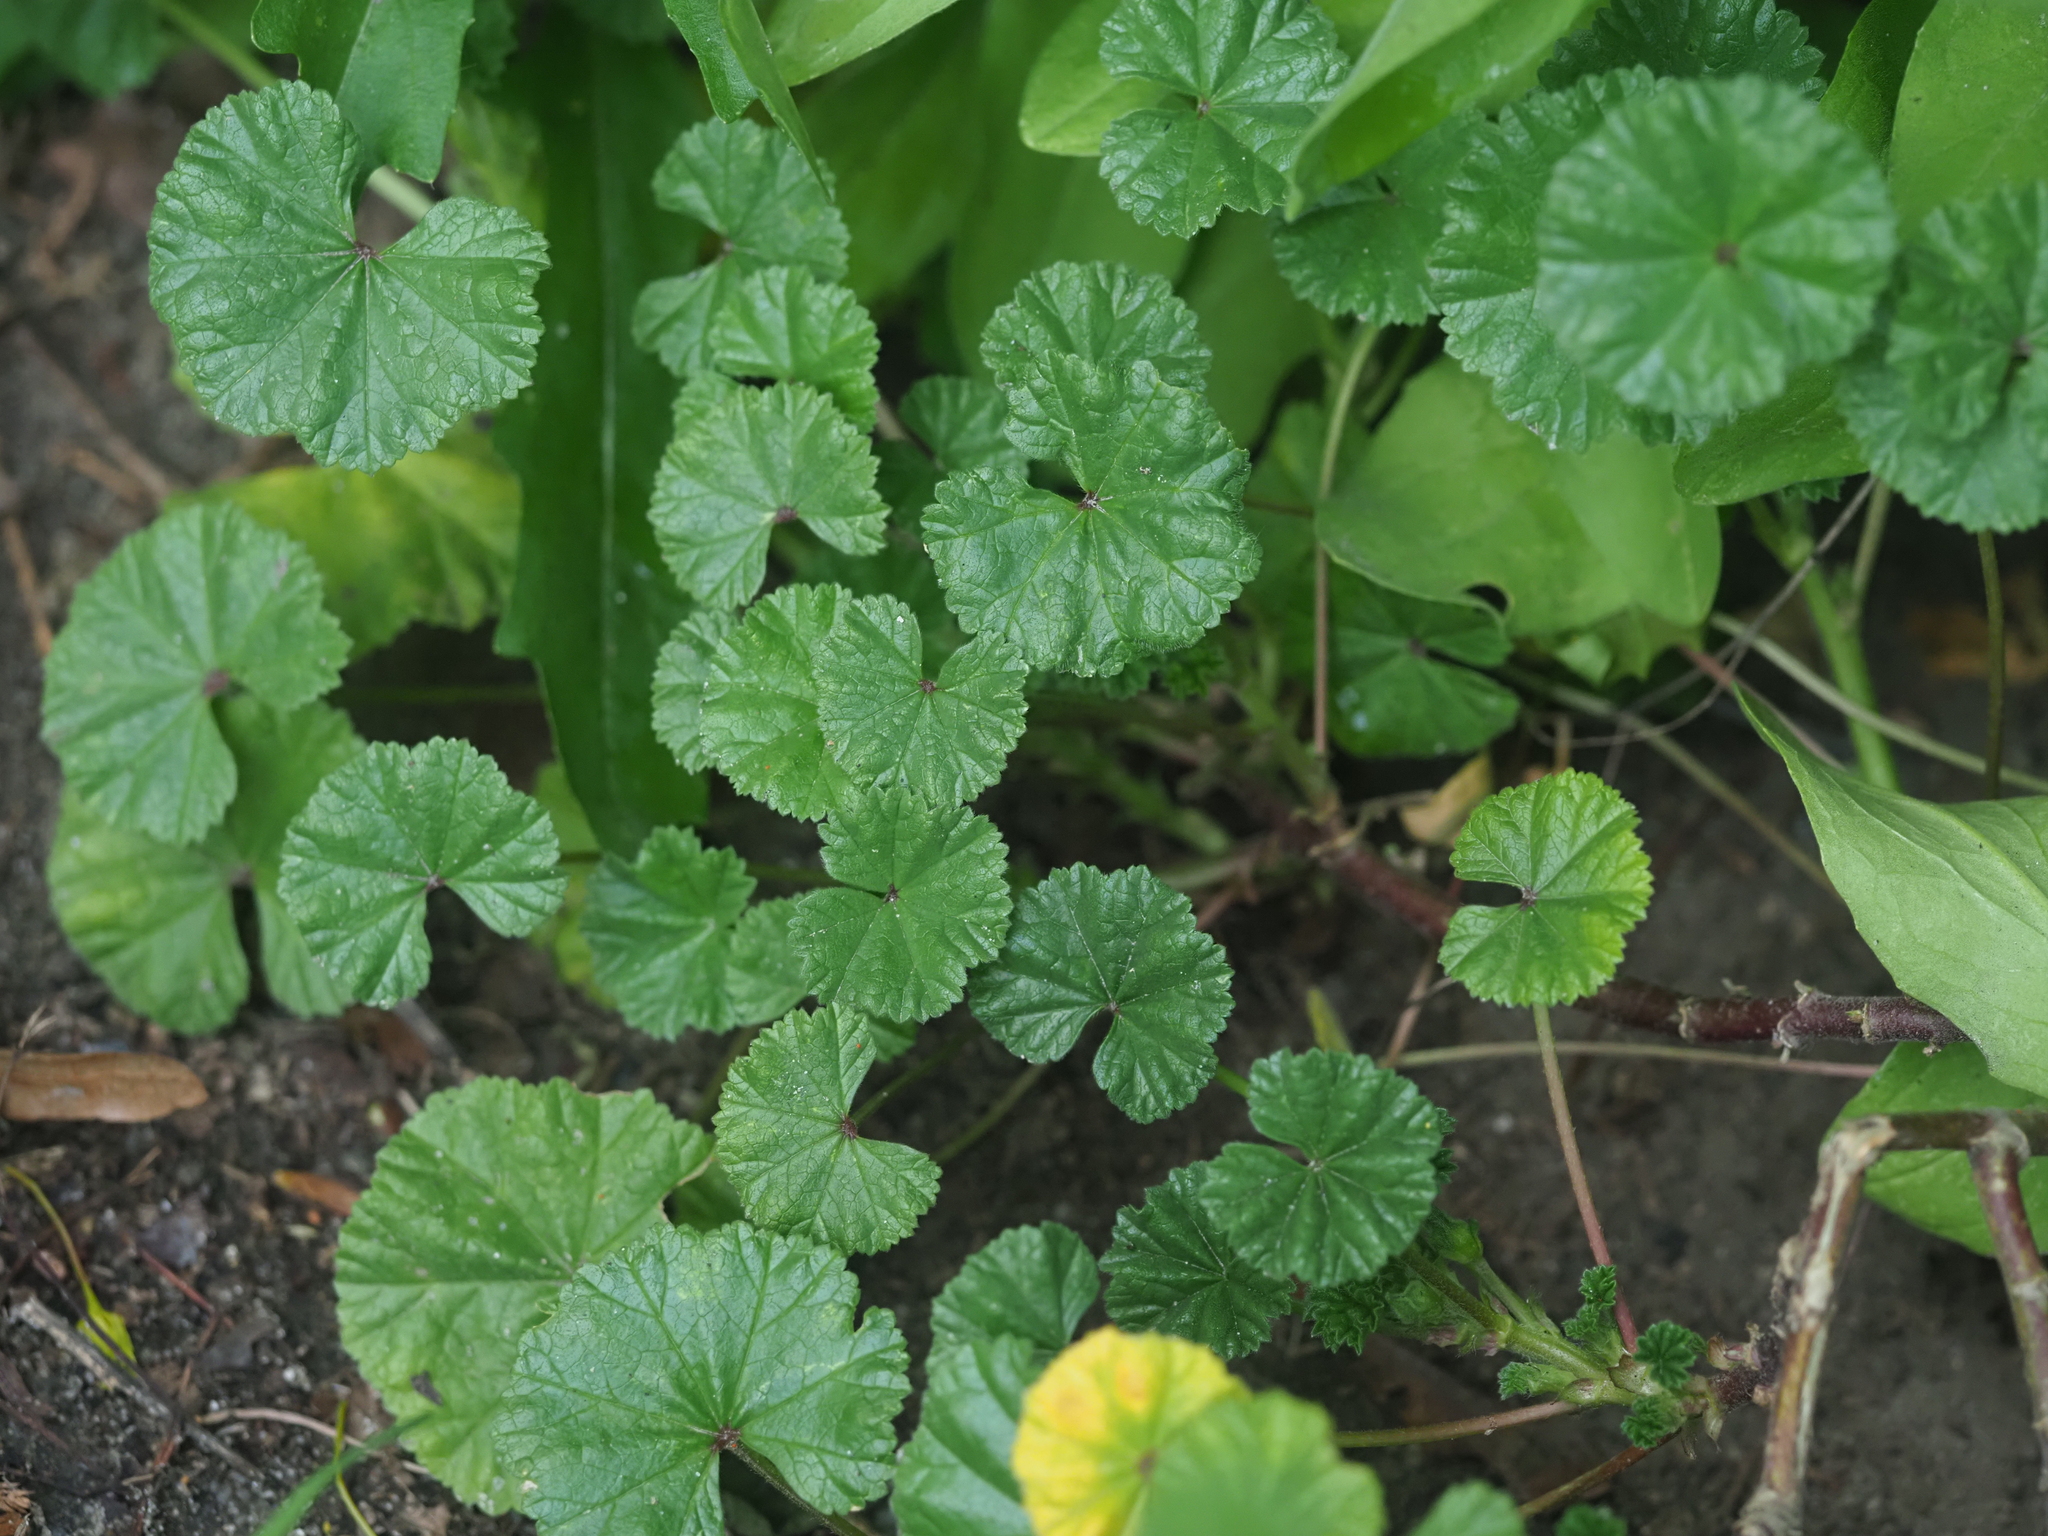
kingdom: Plantae
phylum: Tracheophyta
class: Magnoliopsida
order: Malvales
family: Malvaceae
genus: Malva
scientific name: Malva neglecta
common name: Common mallow
